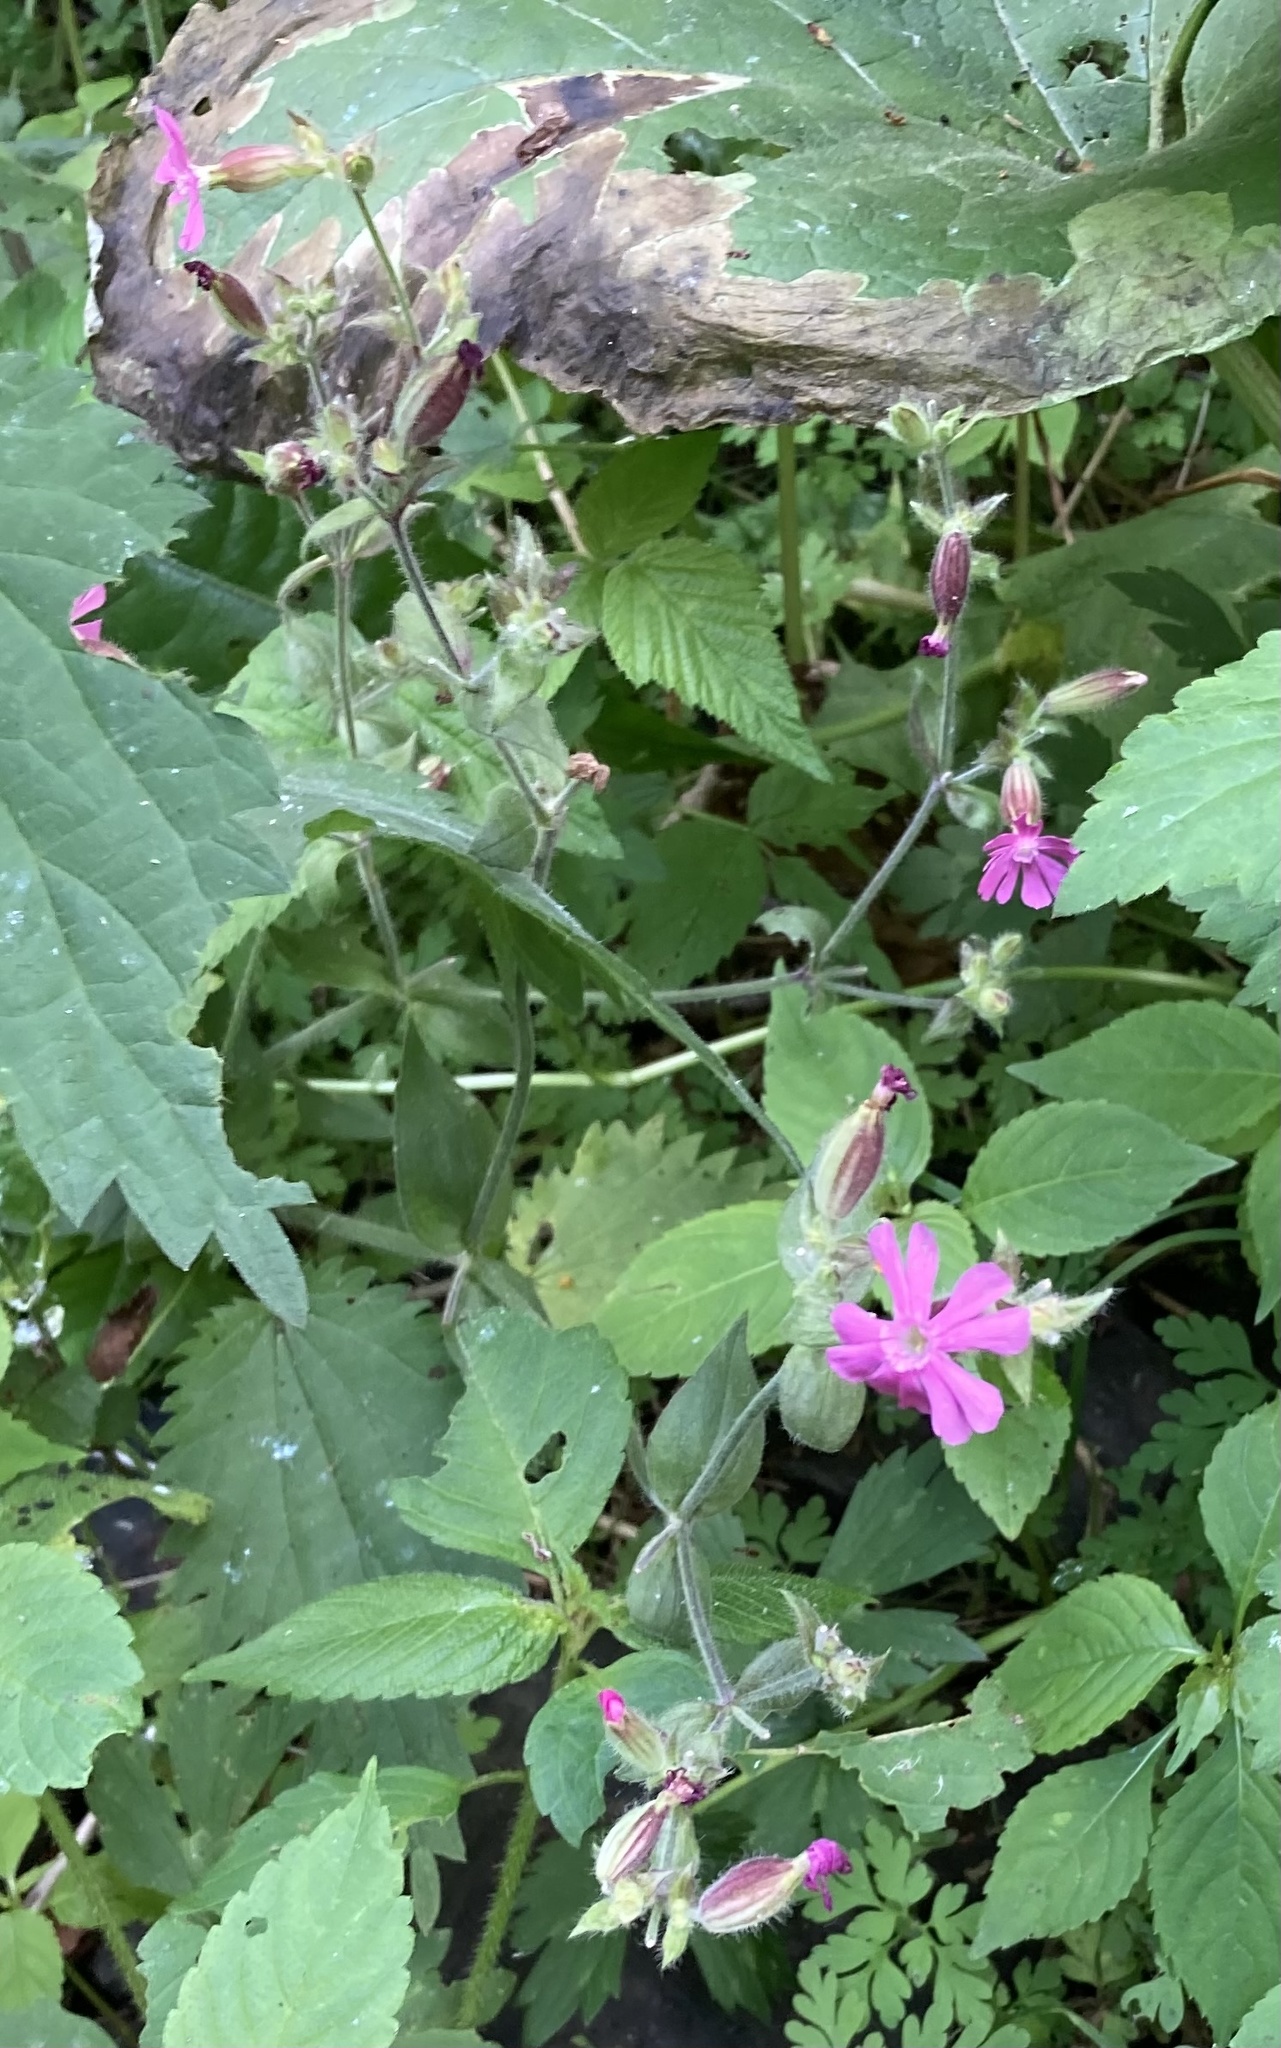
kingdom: Plantae
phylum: Tracheophyta
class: Magnoliopsida
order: Caryophyllales
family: Caryophyllaceae
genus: Silene
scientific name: Silene dioica
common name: Red campion
